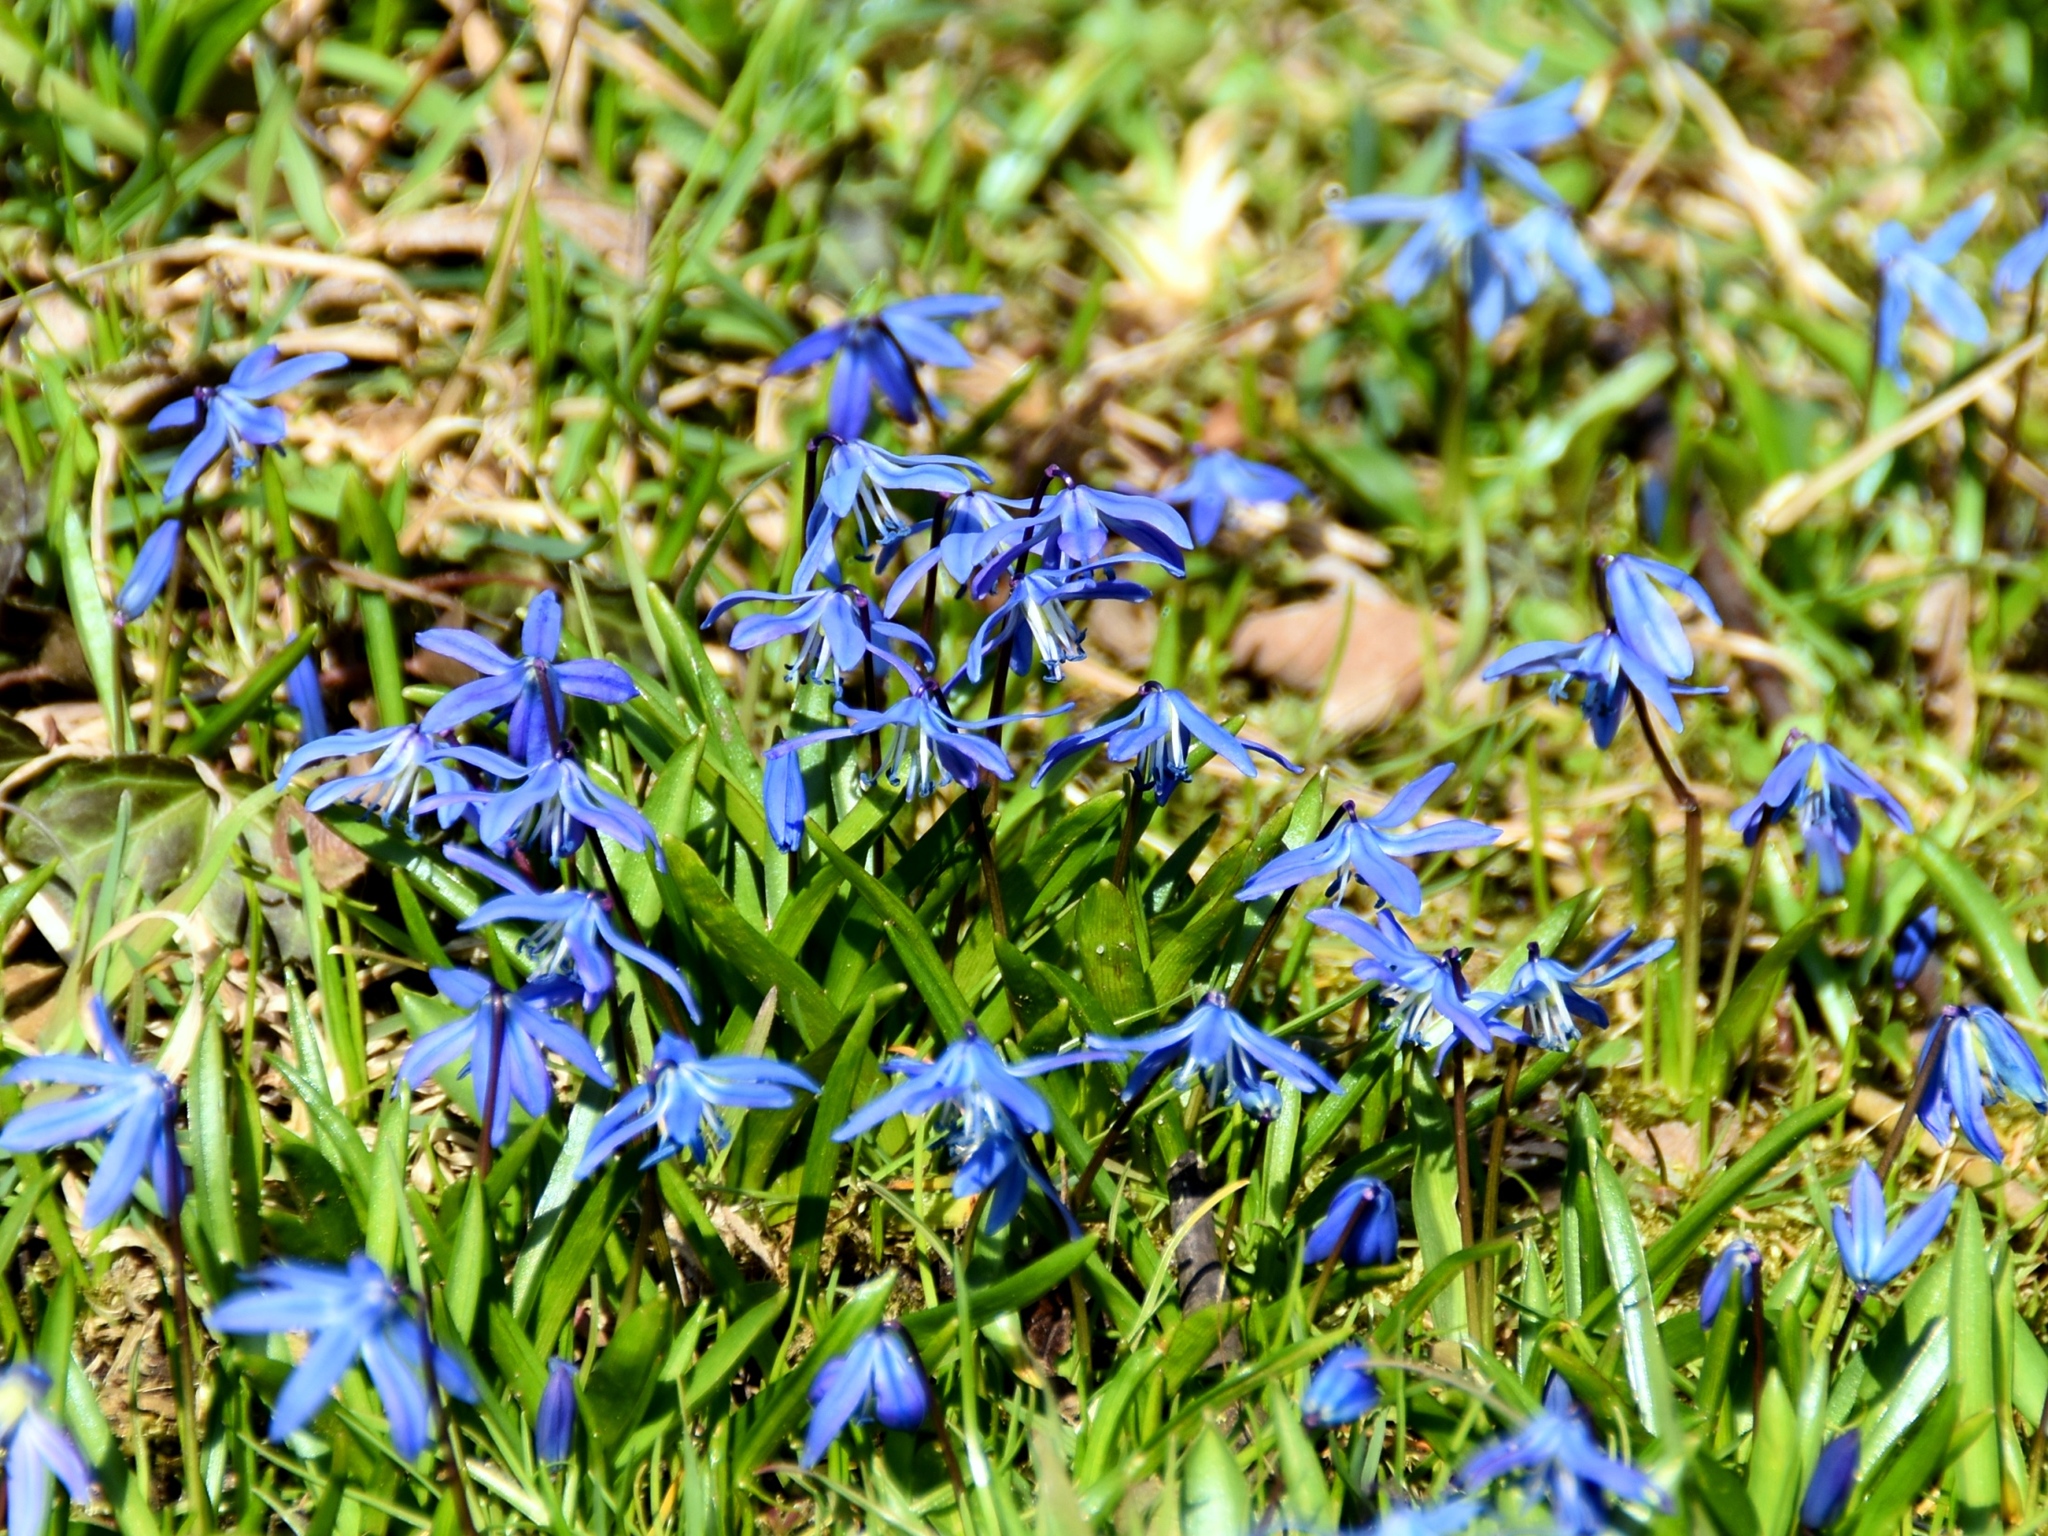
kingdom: Plantae
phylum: Tracheophyta
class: Liliopsida
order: Asparagales
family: Asparagaceae
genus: Scilla
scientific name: Scilla siberica
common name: Siberian squill
